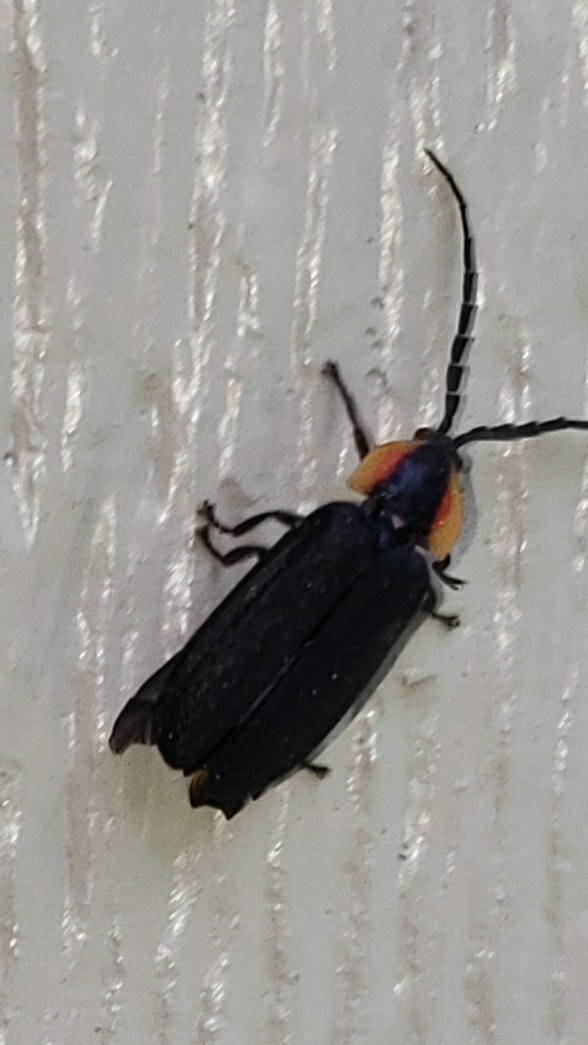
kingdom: Animalia
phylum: Arthropoda
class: Insecta
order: Coleoptera
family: Lampyridae
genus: Lucidota
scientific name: Lucidota atra
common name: Black firefly
